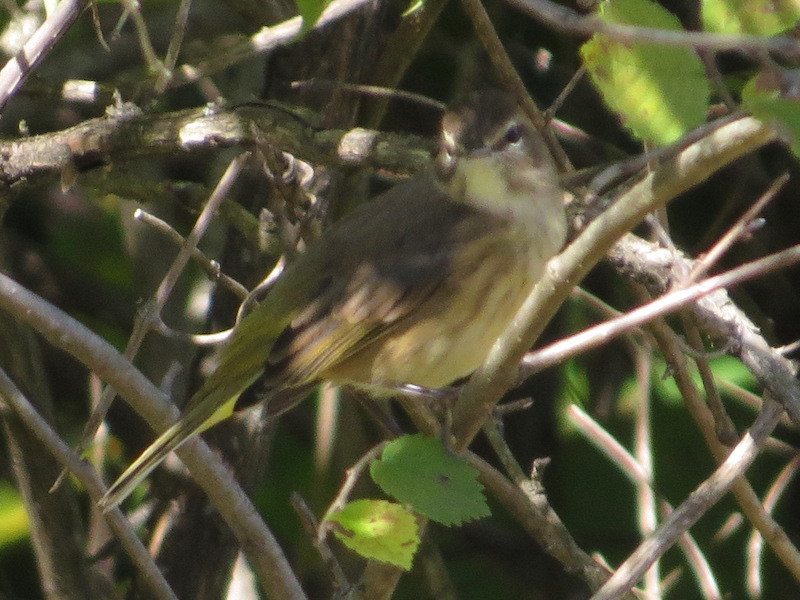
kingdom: Animalia
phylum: Chordata
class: Aves
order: Passeriformes
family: Parulidae
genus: Setophaga
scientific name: Setophaga palmarum
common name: Palm warbler
